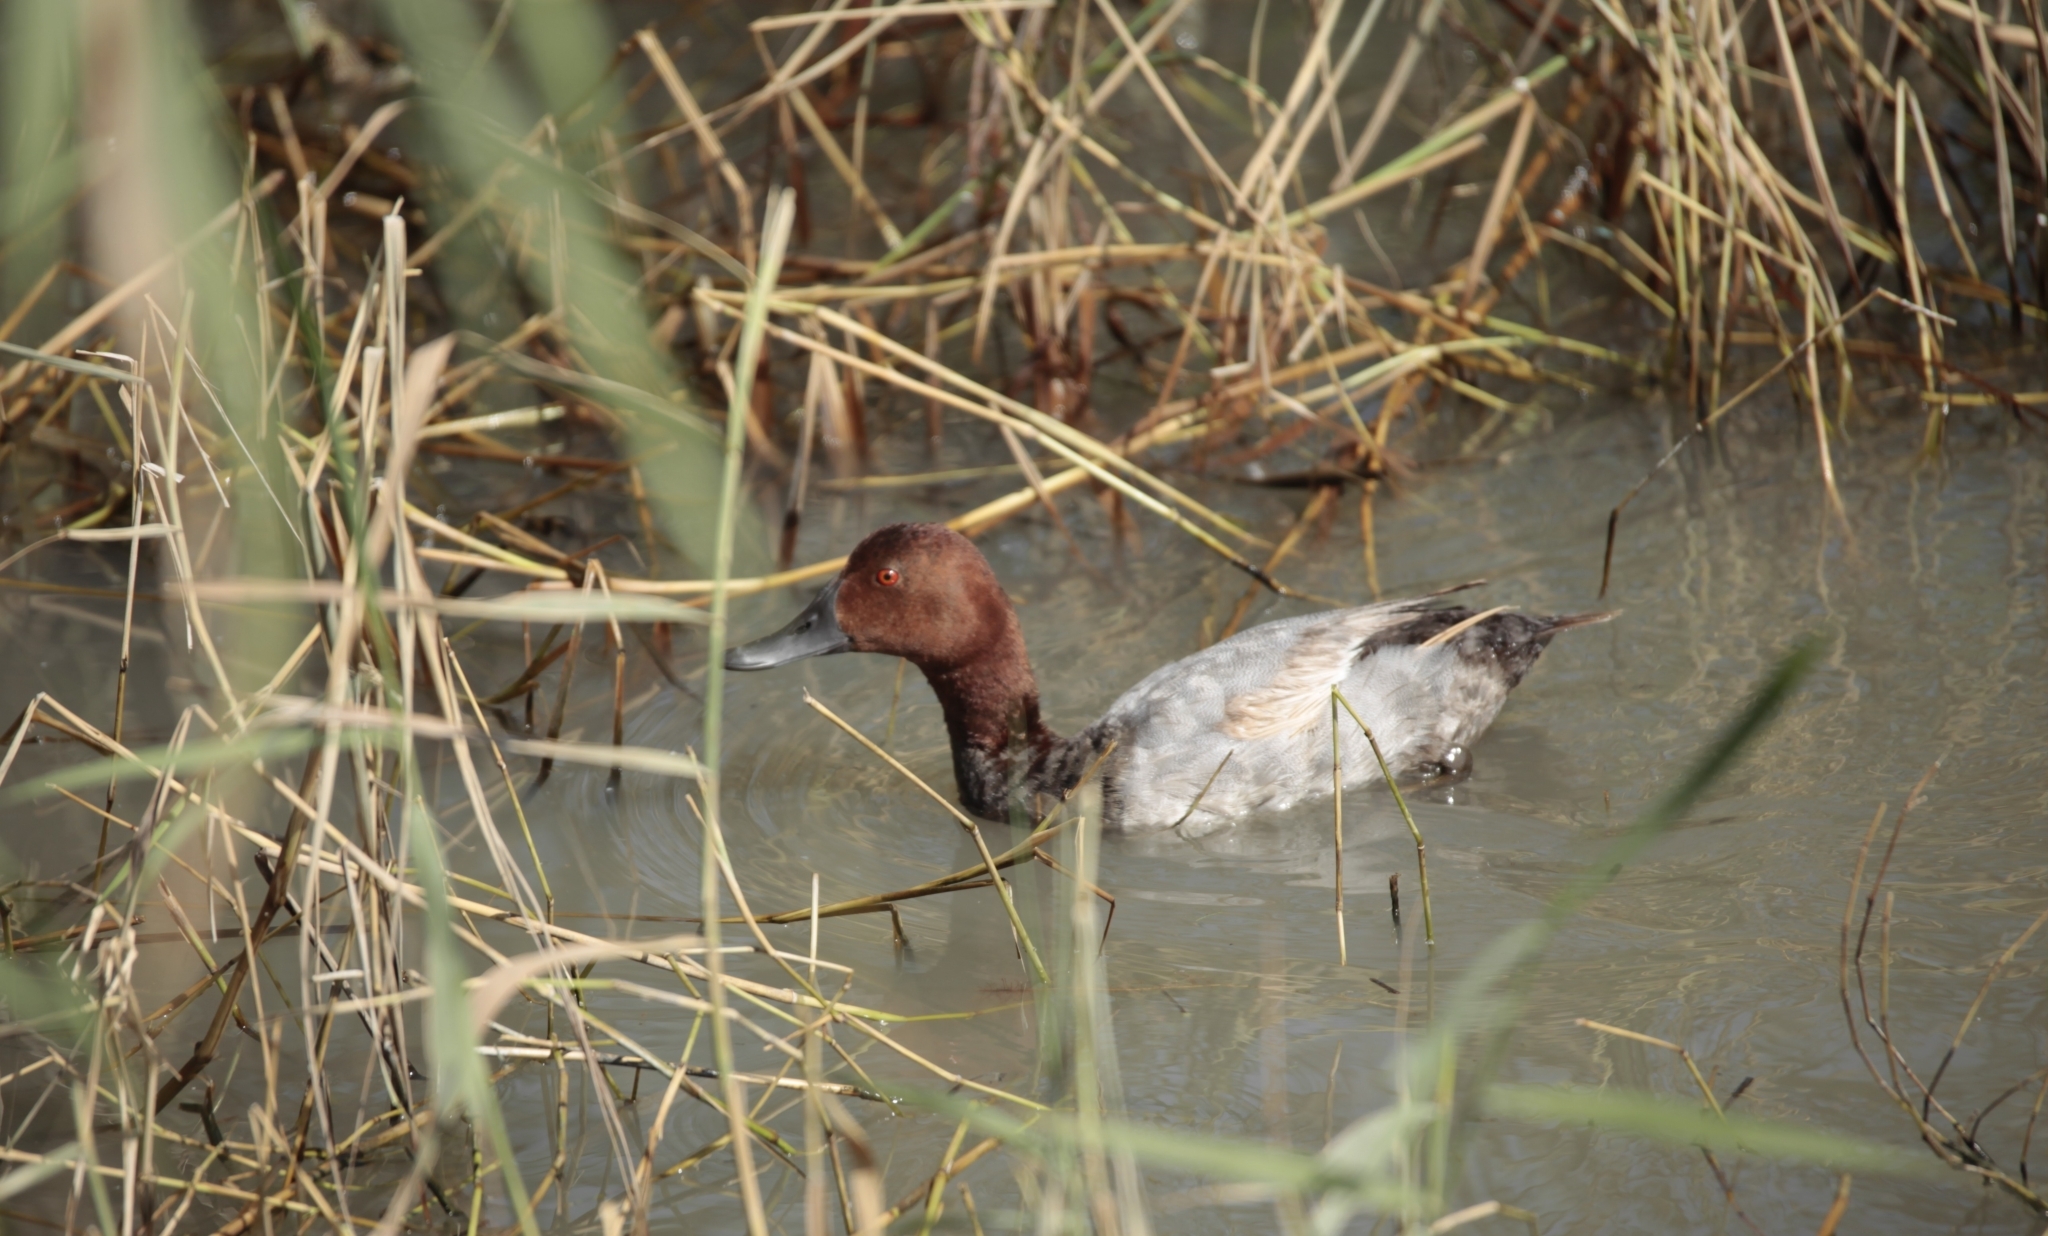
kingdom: Animalia
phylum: Chordata
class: Aves
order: Anseriformes
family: Anatidae
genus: Aythya
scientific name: Aythya ferina
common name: Common pochard
